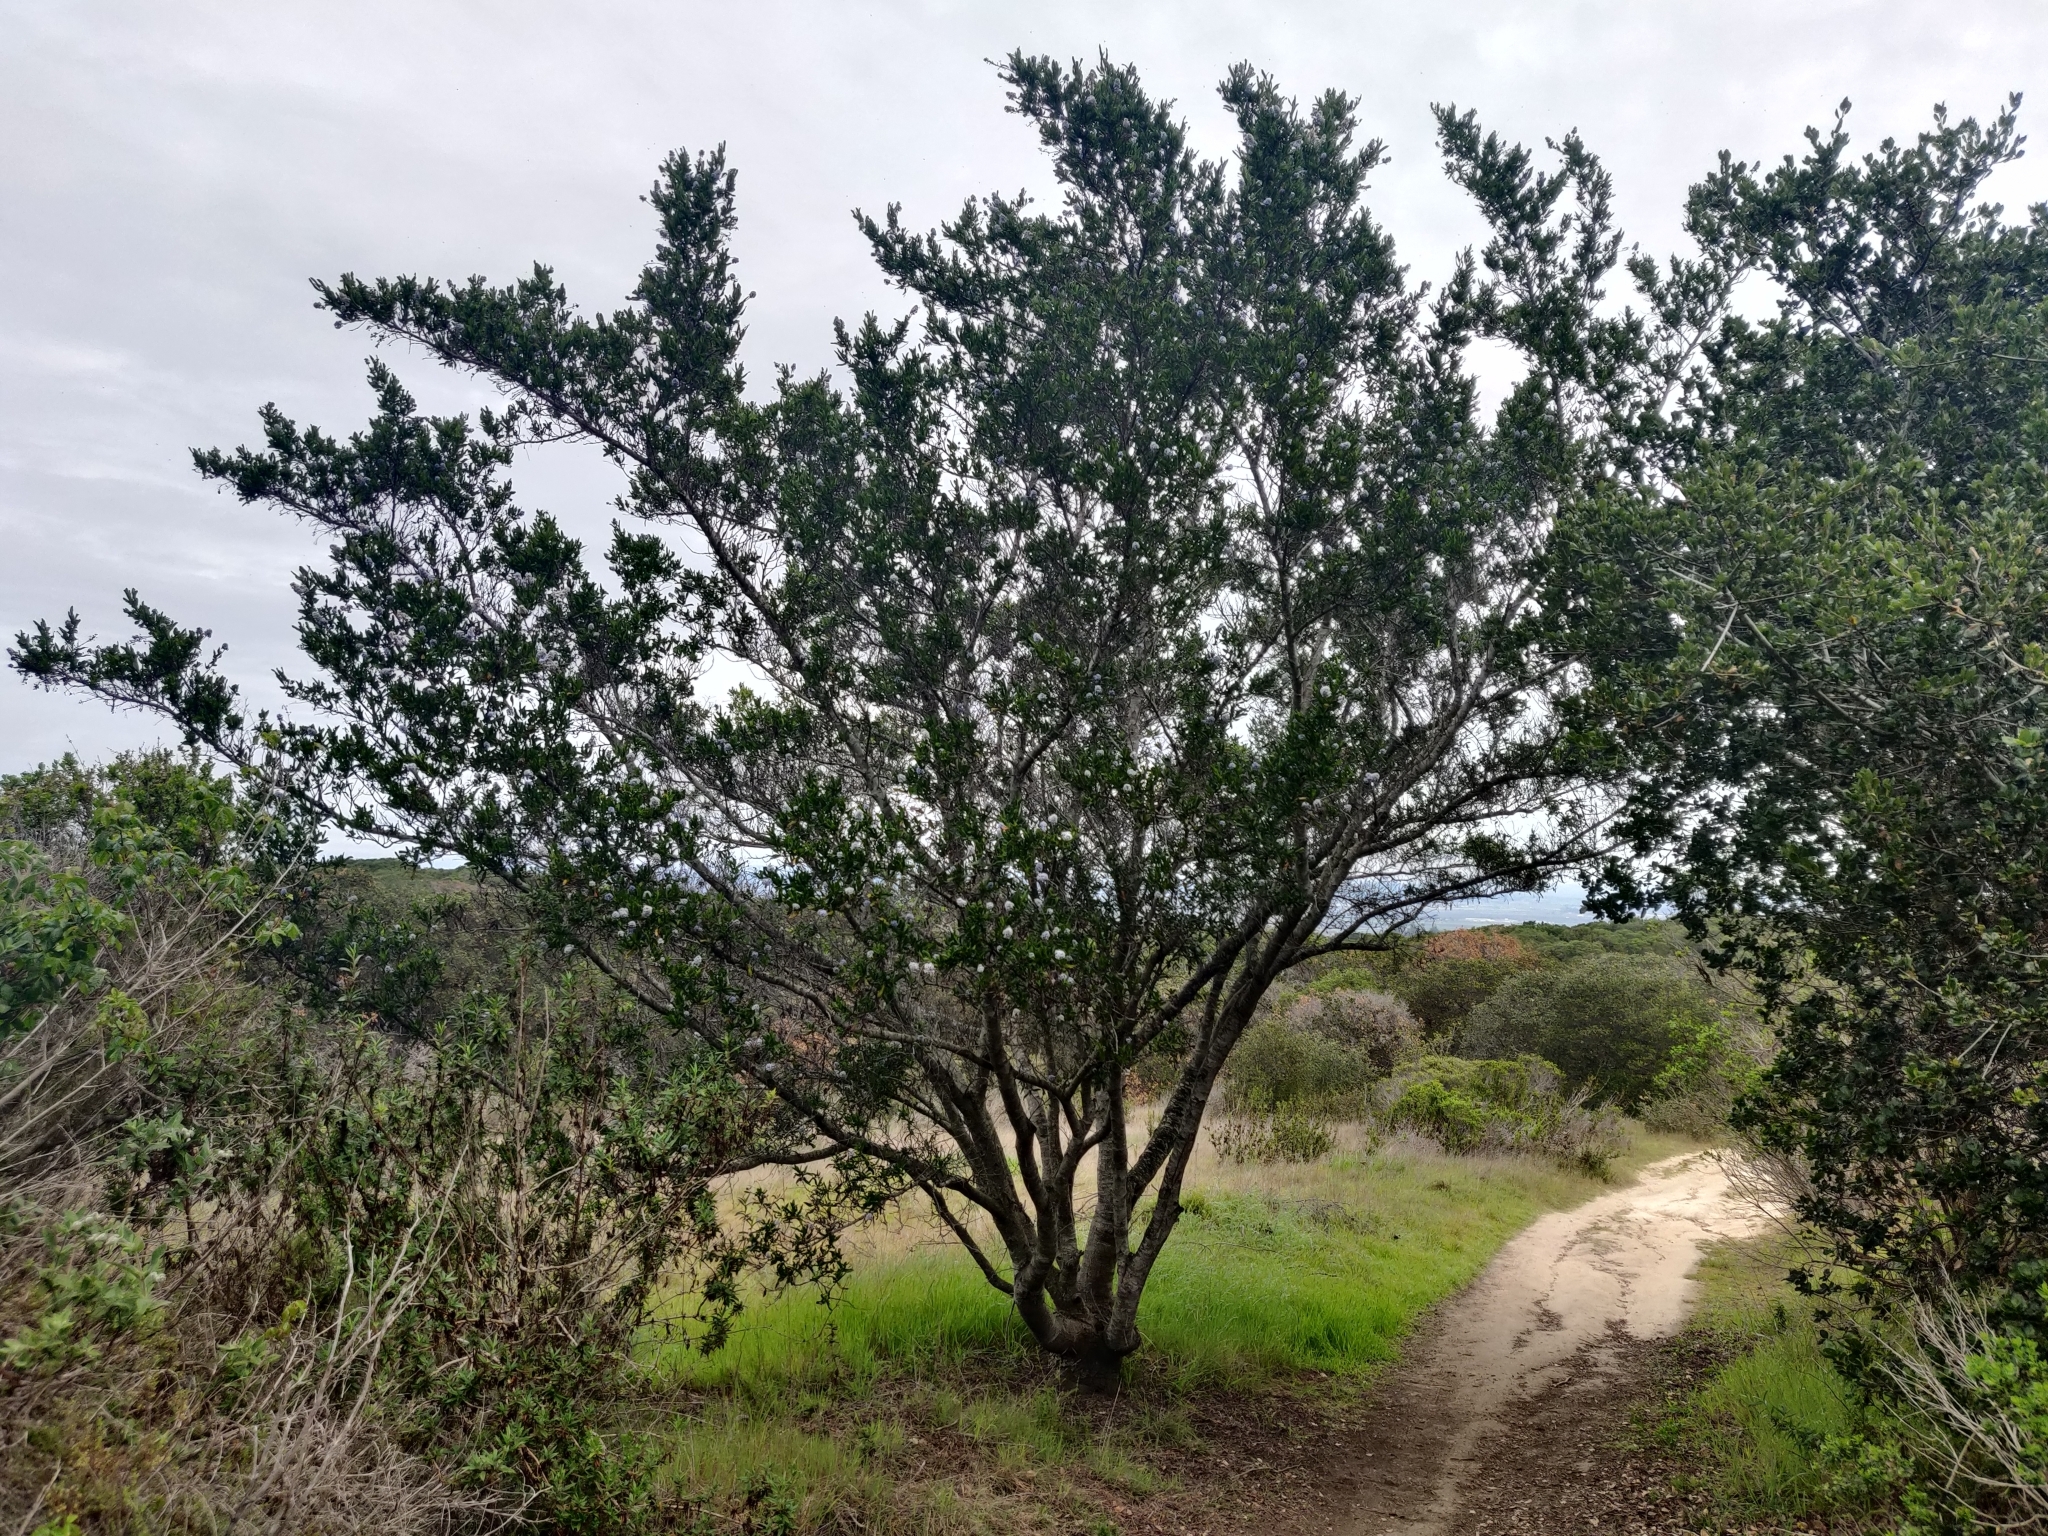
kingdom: Plantae
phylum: Tracheophyta
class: Magnoliopsida
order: Rosales
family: Rhamnaceae
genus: Ceanothus
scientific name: Ceanothus thyrsiflorus
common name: California-lilac
